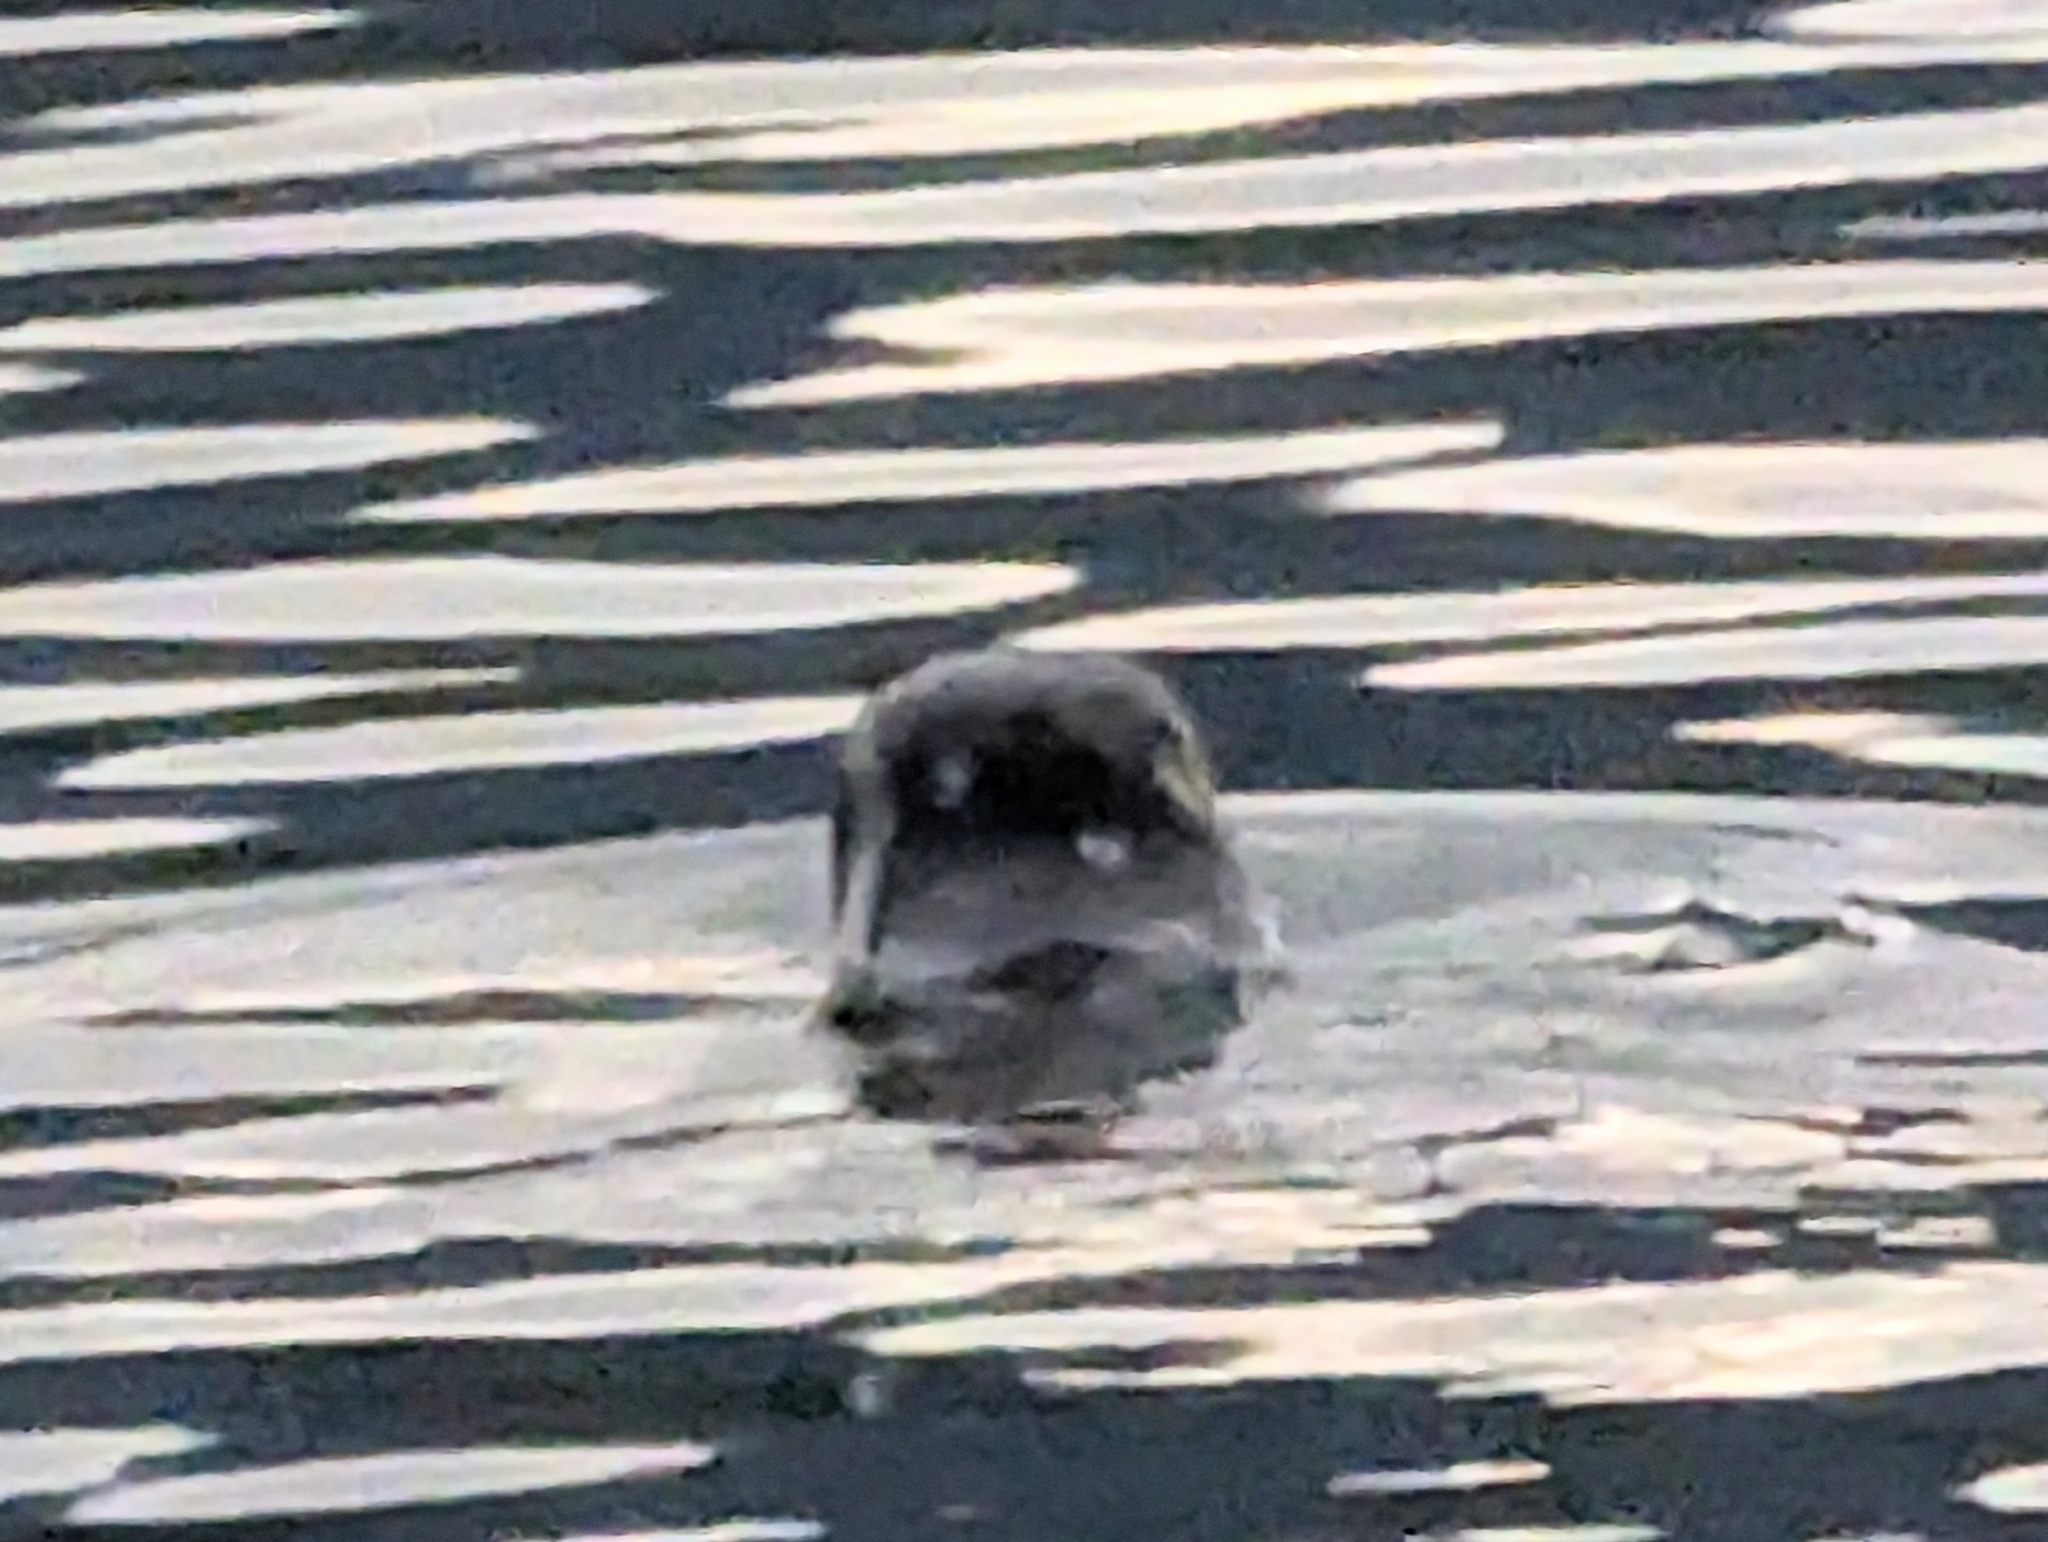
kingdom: Animalia
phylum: Chordata
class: Mammalia
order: Carnivora
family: Phocidae
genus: Phoca
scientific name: Phoca vitulina
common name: Harbor seal
